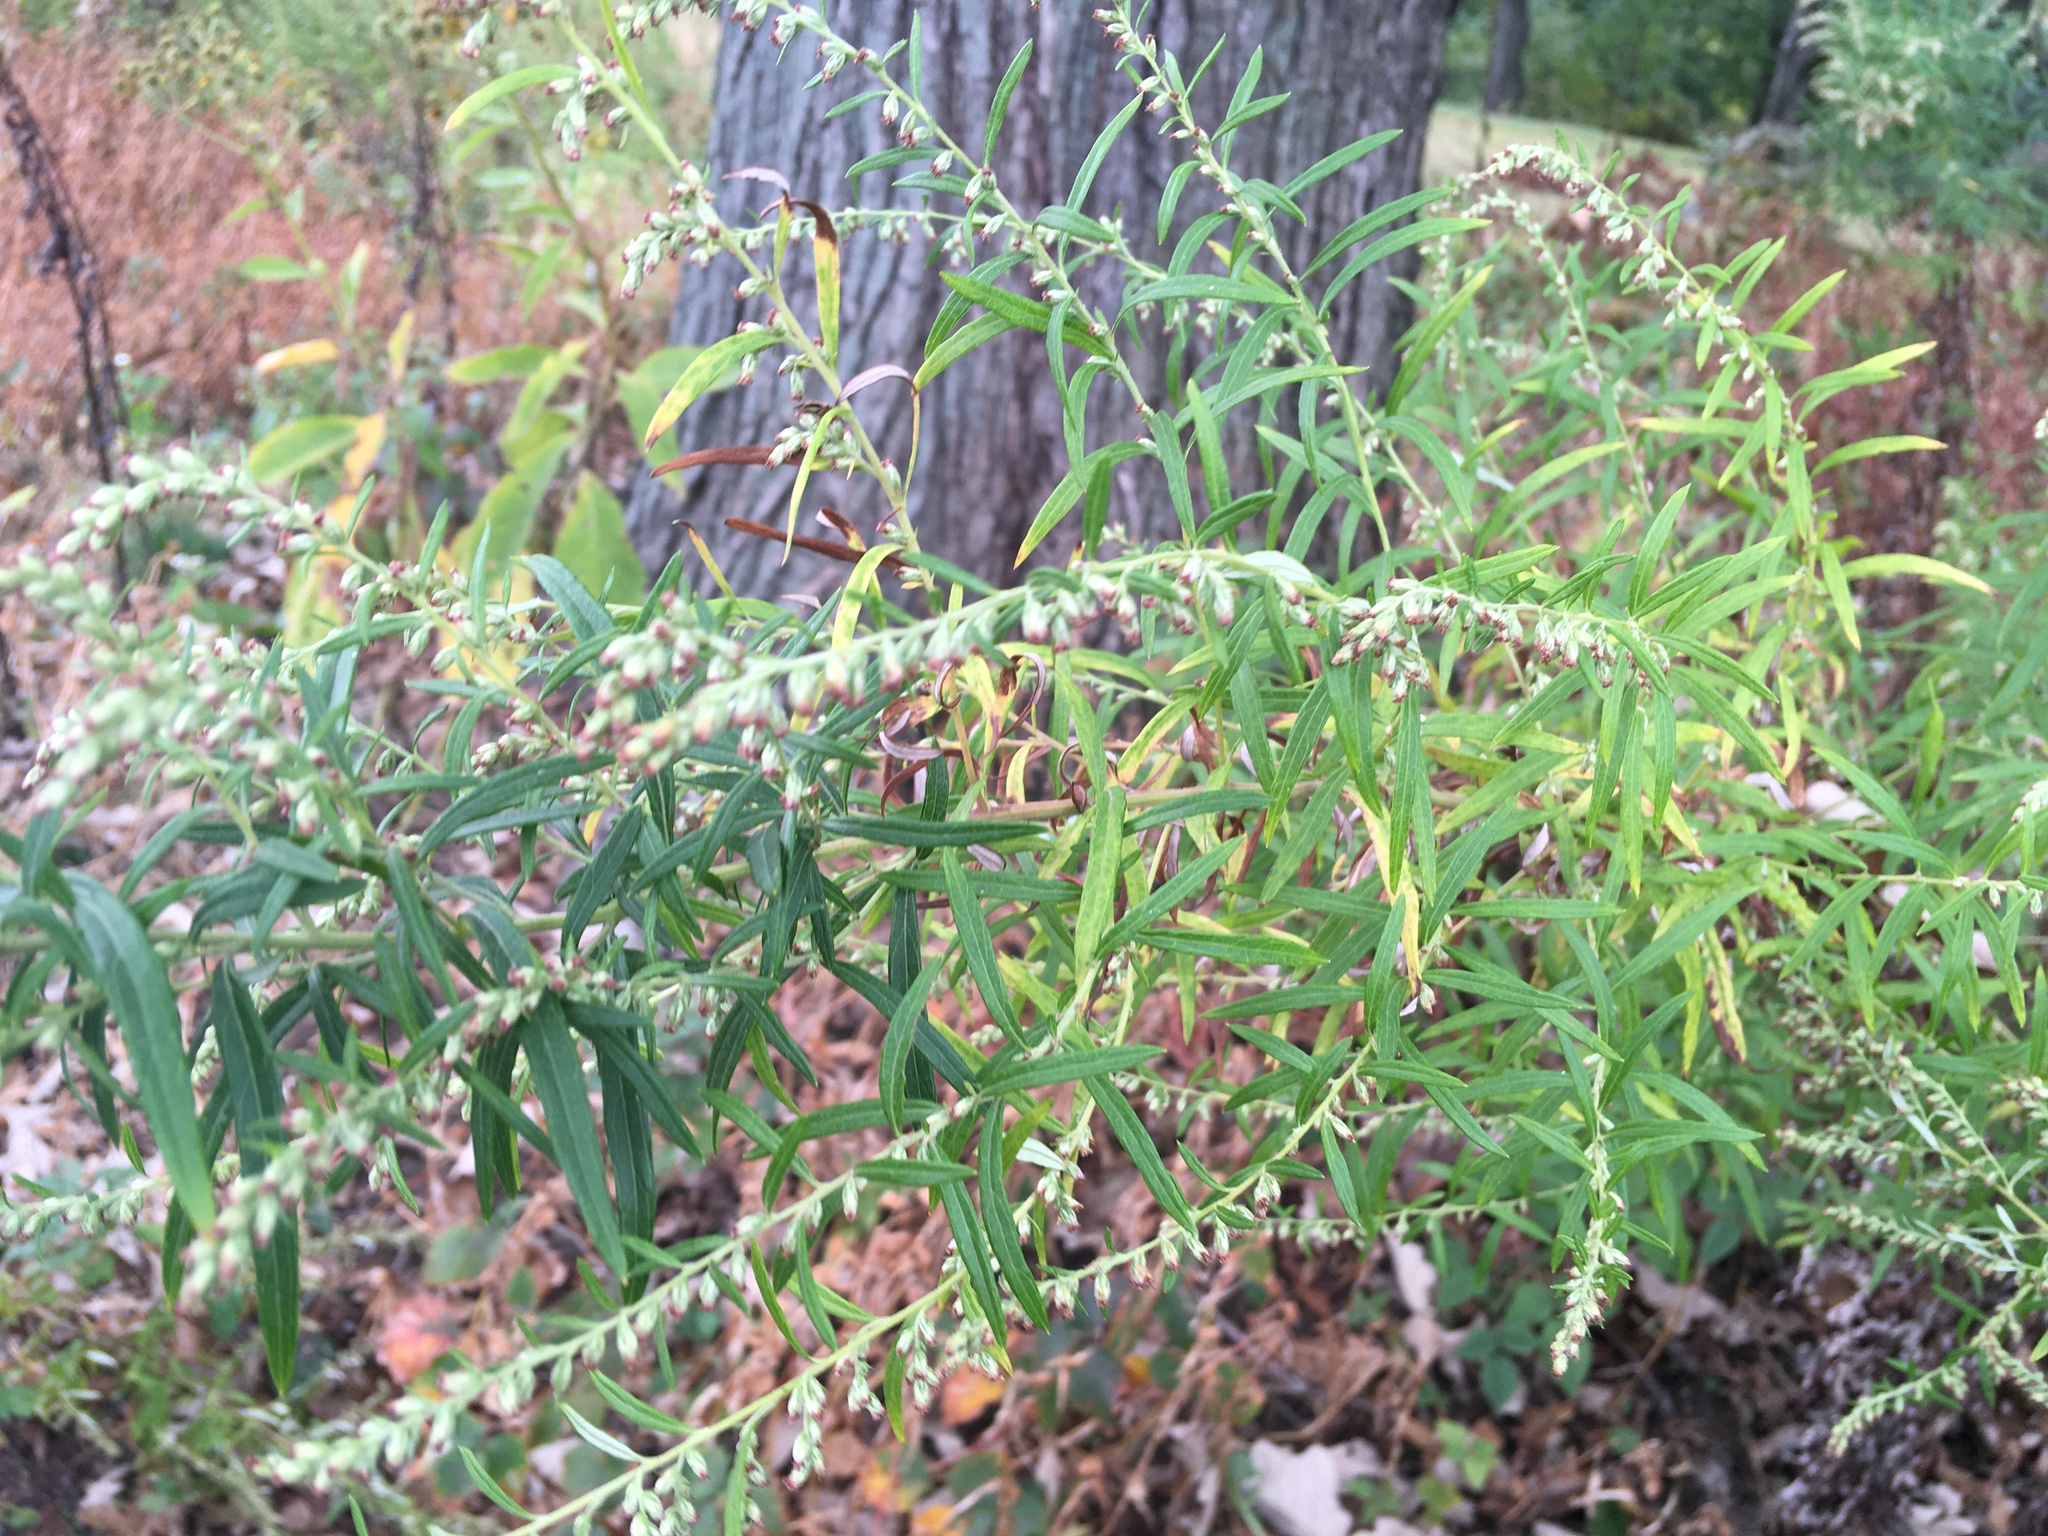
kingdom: Plantae
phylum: Tracheophyta
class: Magnoliopsida
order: Asterales
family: Asteraceae
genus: Artemisia
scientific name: Artemisia vulgaris
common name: Mugwort
